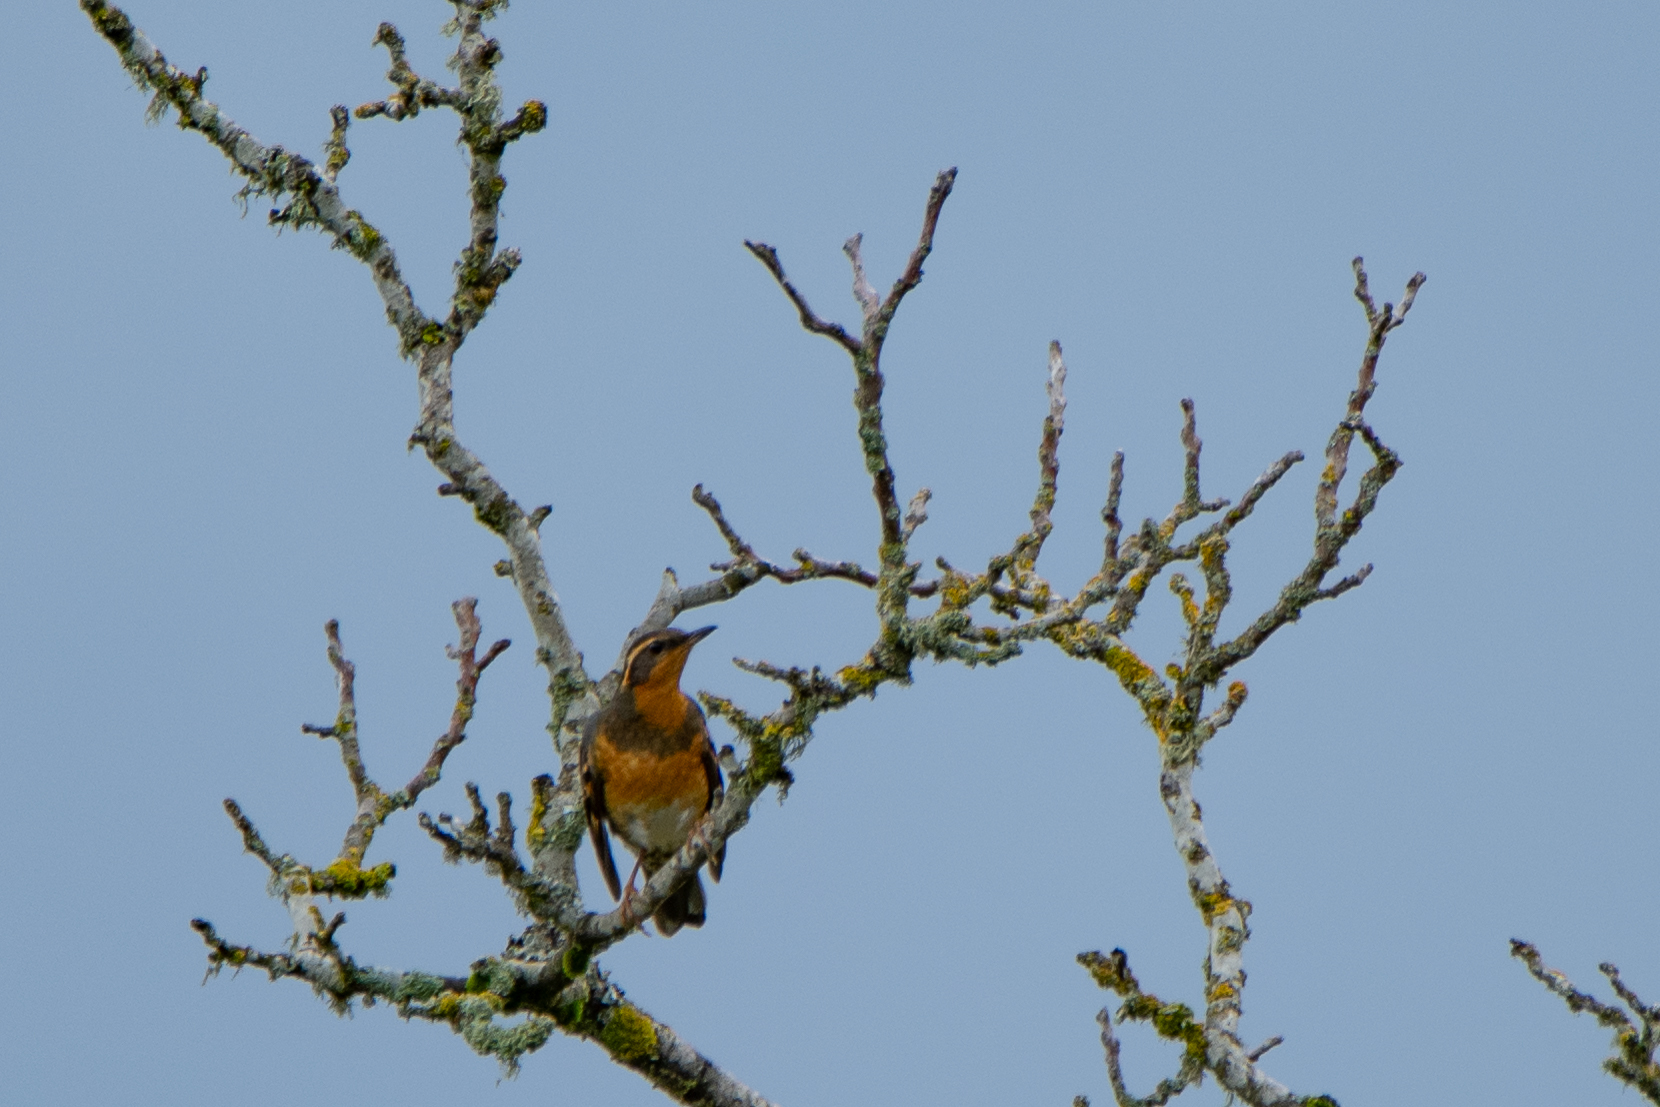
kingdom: Animalia
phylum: Chordata
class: Aves
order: Passeriformes
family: Turdidae
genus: Ixoreus
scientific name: Ixoreus naevius
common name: Varied thrush
